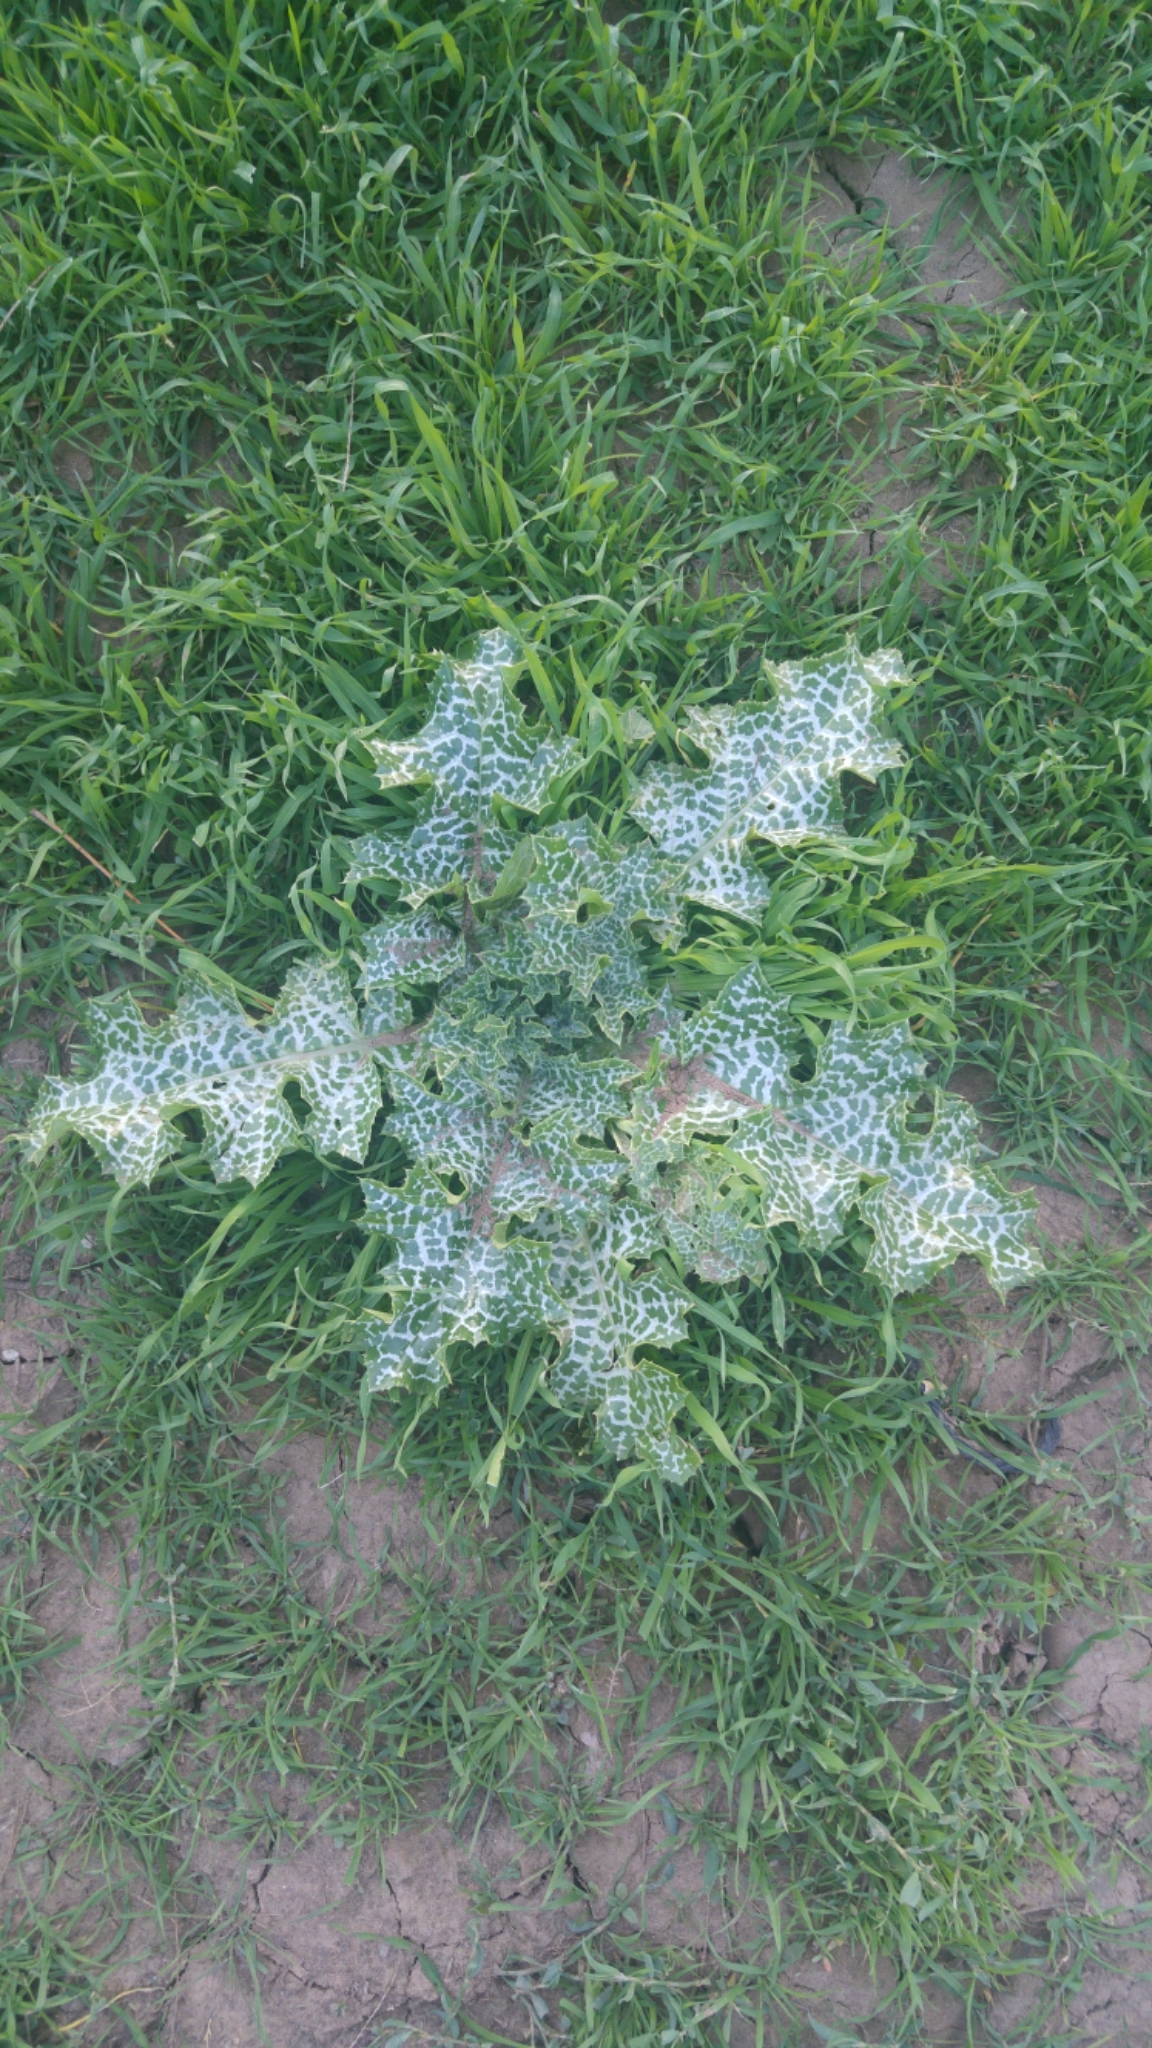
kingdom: Plantae
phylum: Tracheophyta
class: Magnoliopsida
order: Asterales
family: Asteraceae
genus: Silybum
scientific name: Silybum marianum
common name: Milk thistle
